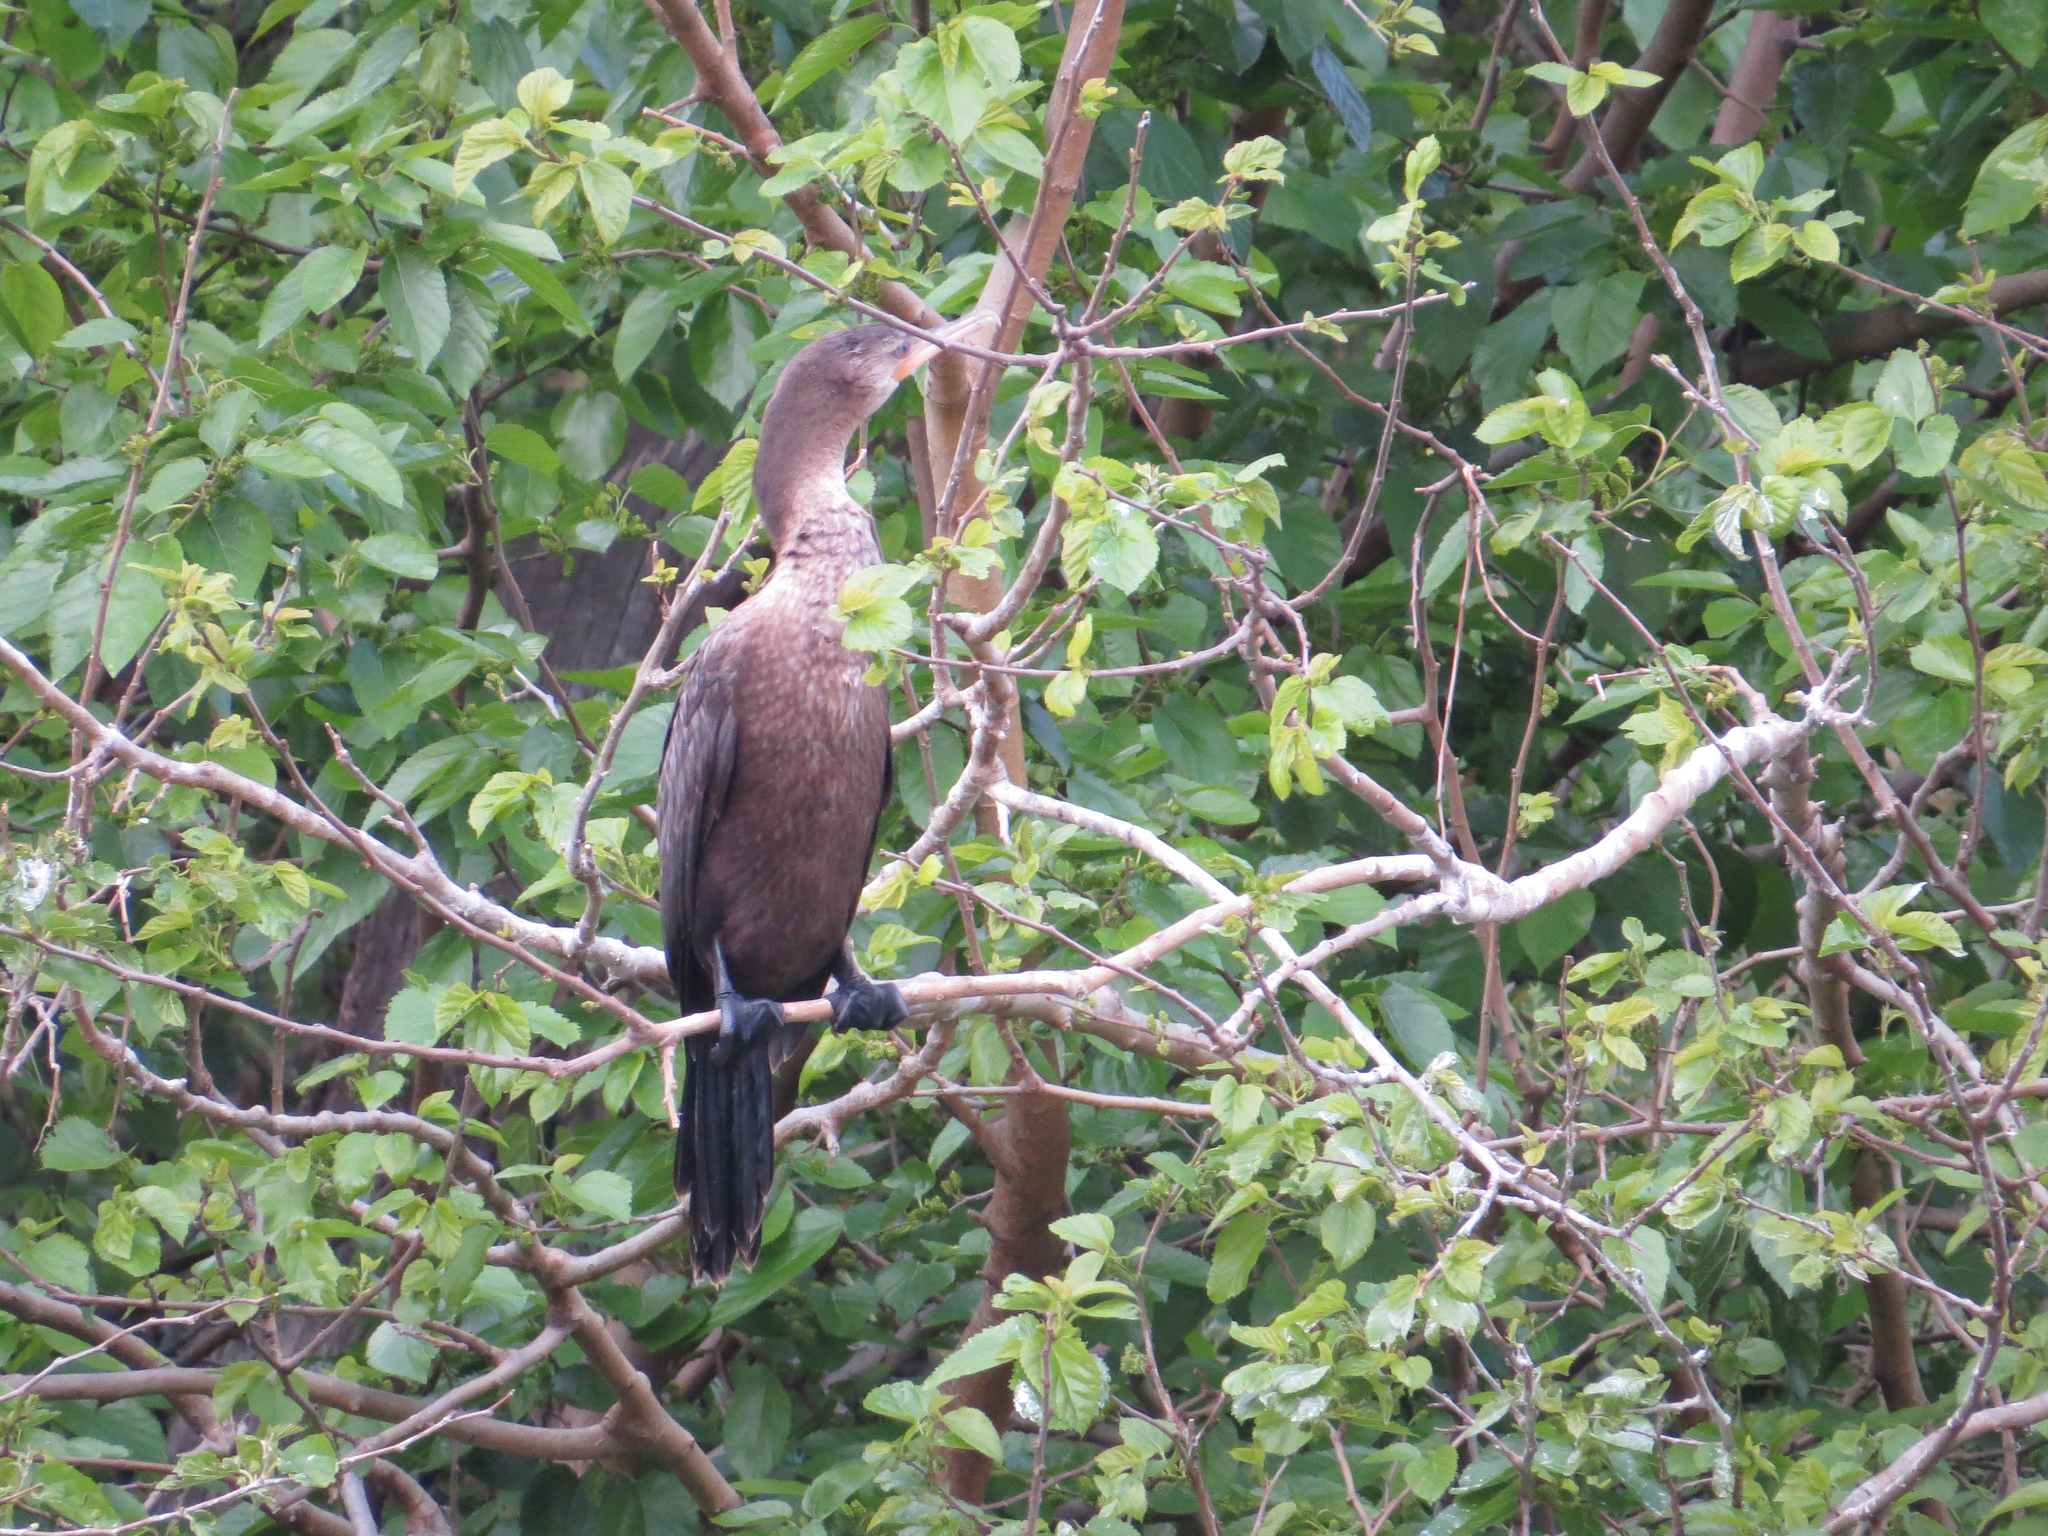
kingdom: Animalia
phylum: Chordata
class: Aves
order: Suliformes
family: Phalacrocoracidae
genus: Phalacrocorax
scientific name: Phalacrocorax brasilianus
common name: Neotropic cormorant
